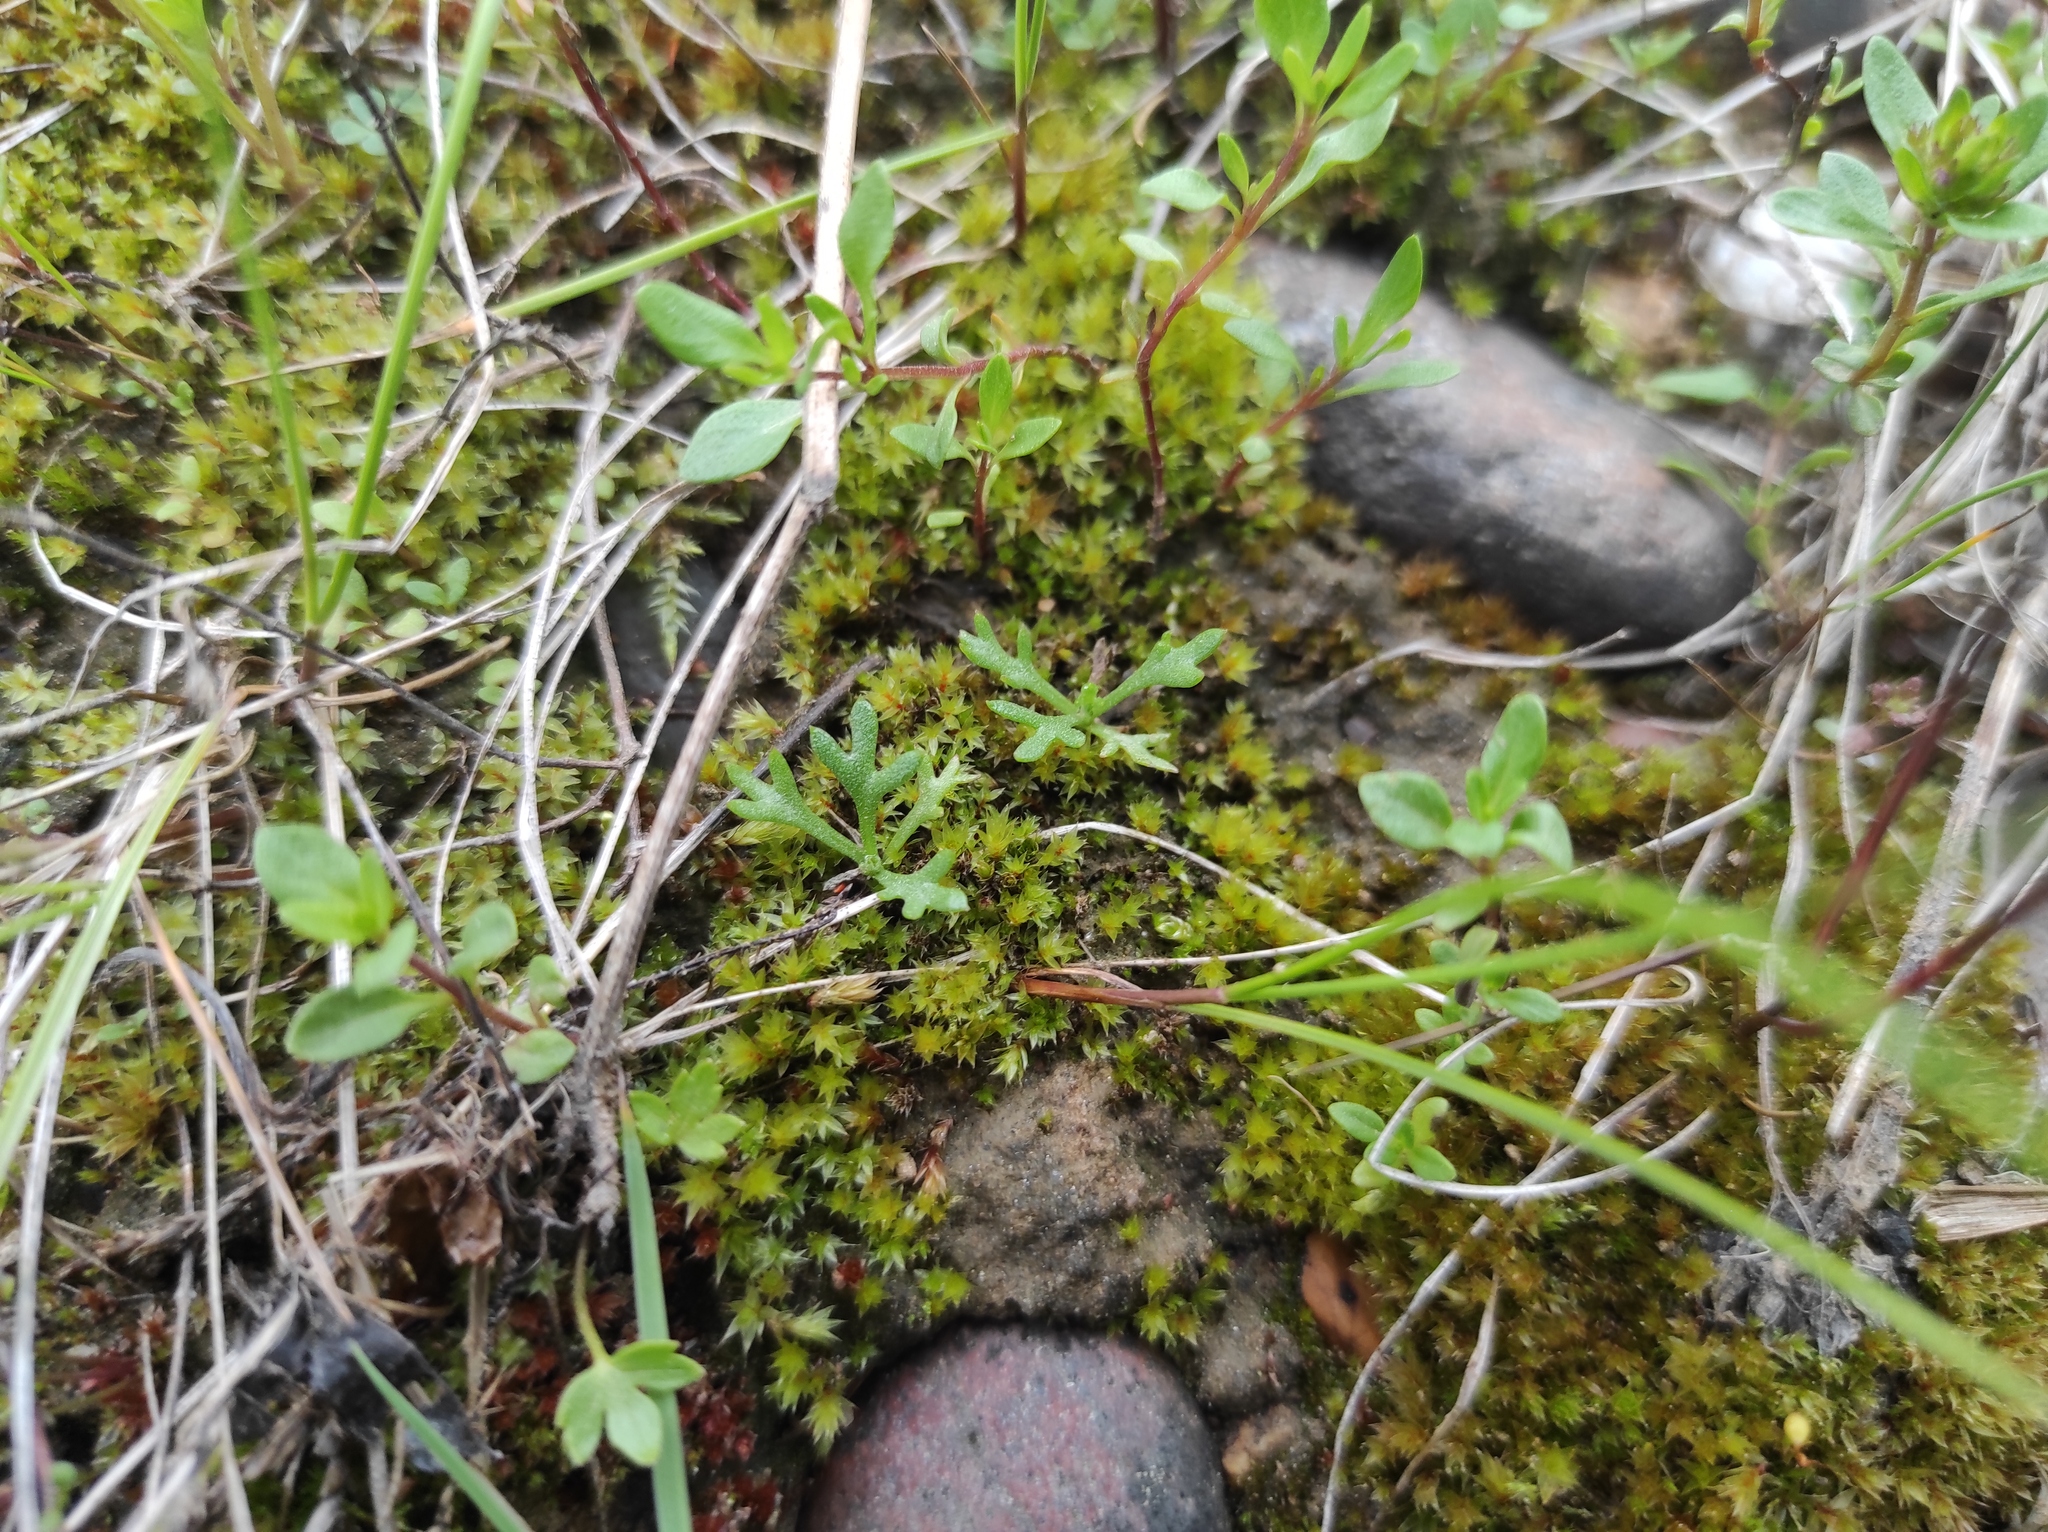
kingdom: Plantae
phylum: Tracheophyta
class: Magnoliopsida
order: Asterales
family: Asteraceae
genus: Chrysanthemum
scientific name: Chrysanthemum zawadzkii
